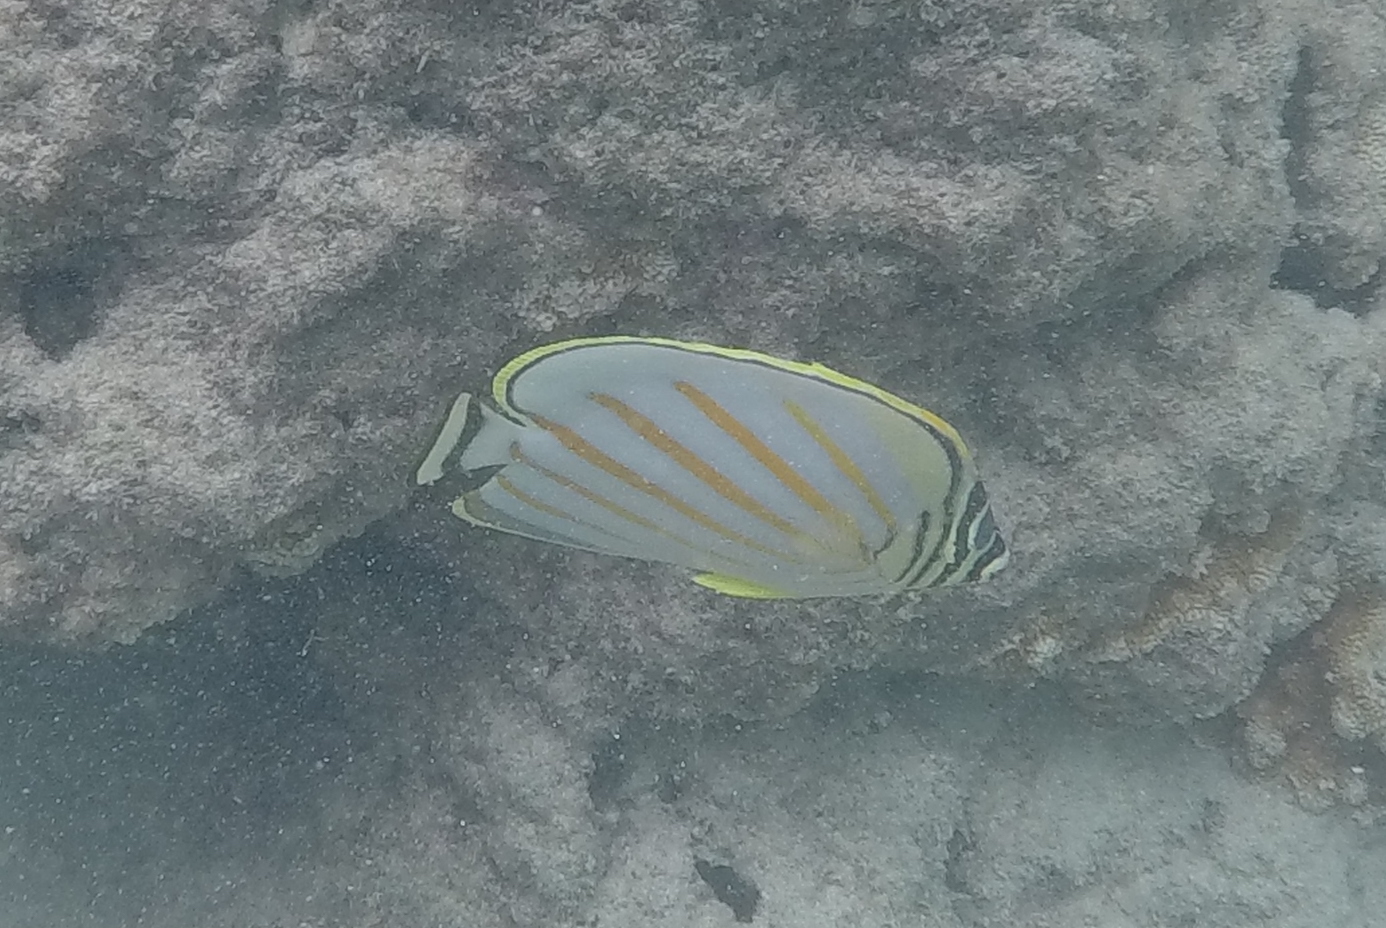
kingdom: Animalia
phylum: Chordata
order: Perciformes
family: Chaetodontidae
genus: Chaetodon
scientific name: Chaetodon ornatissimus
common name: Ornate butterflyfish
